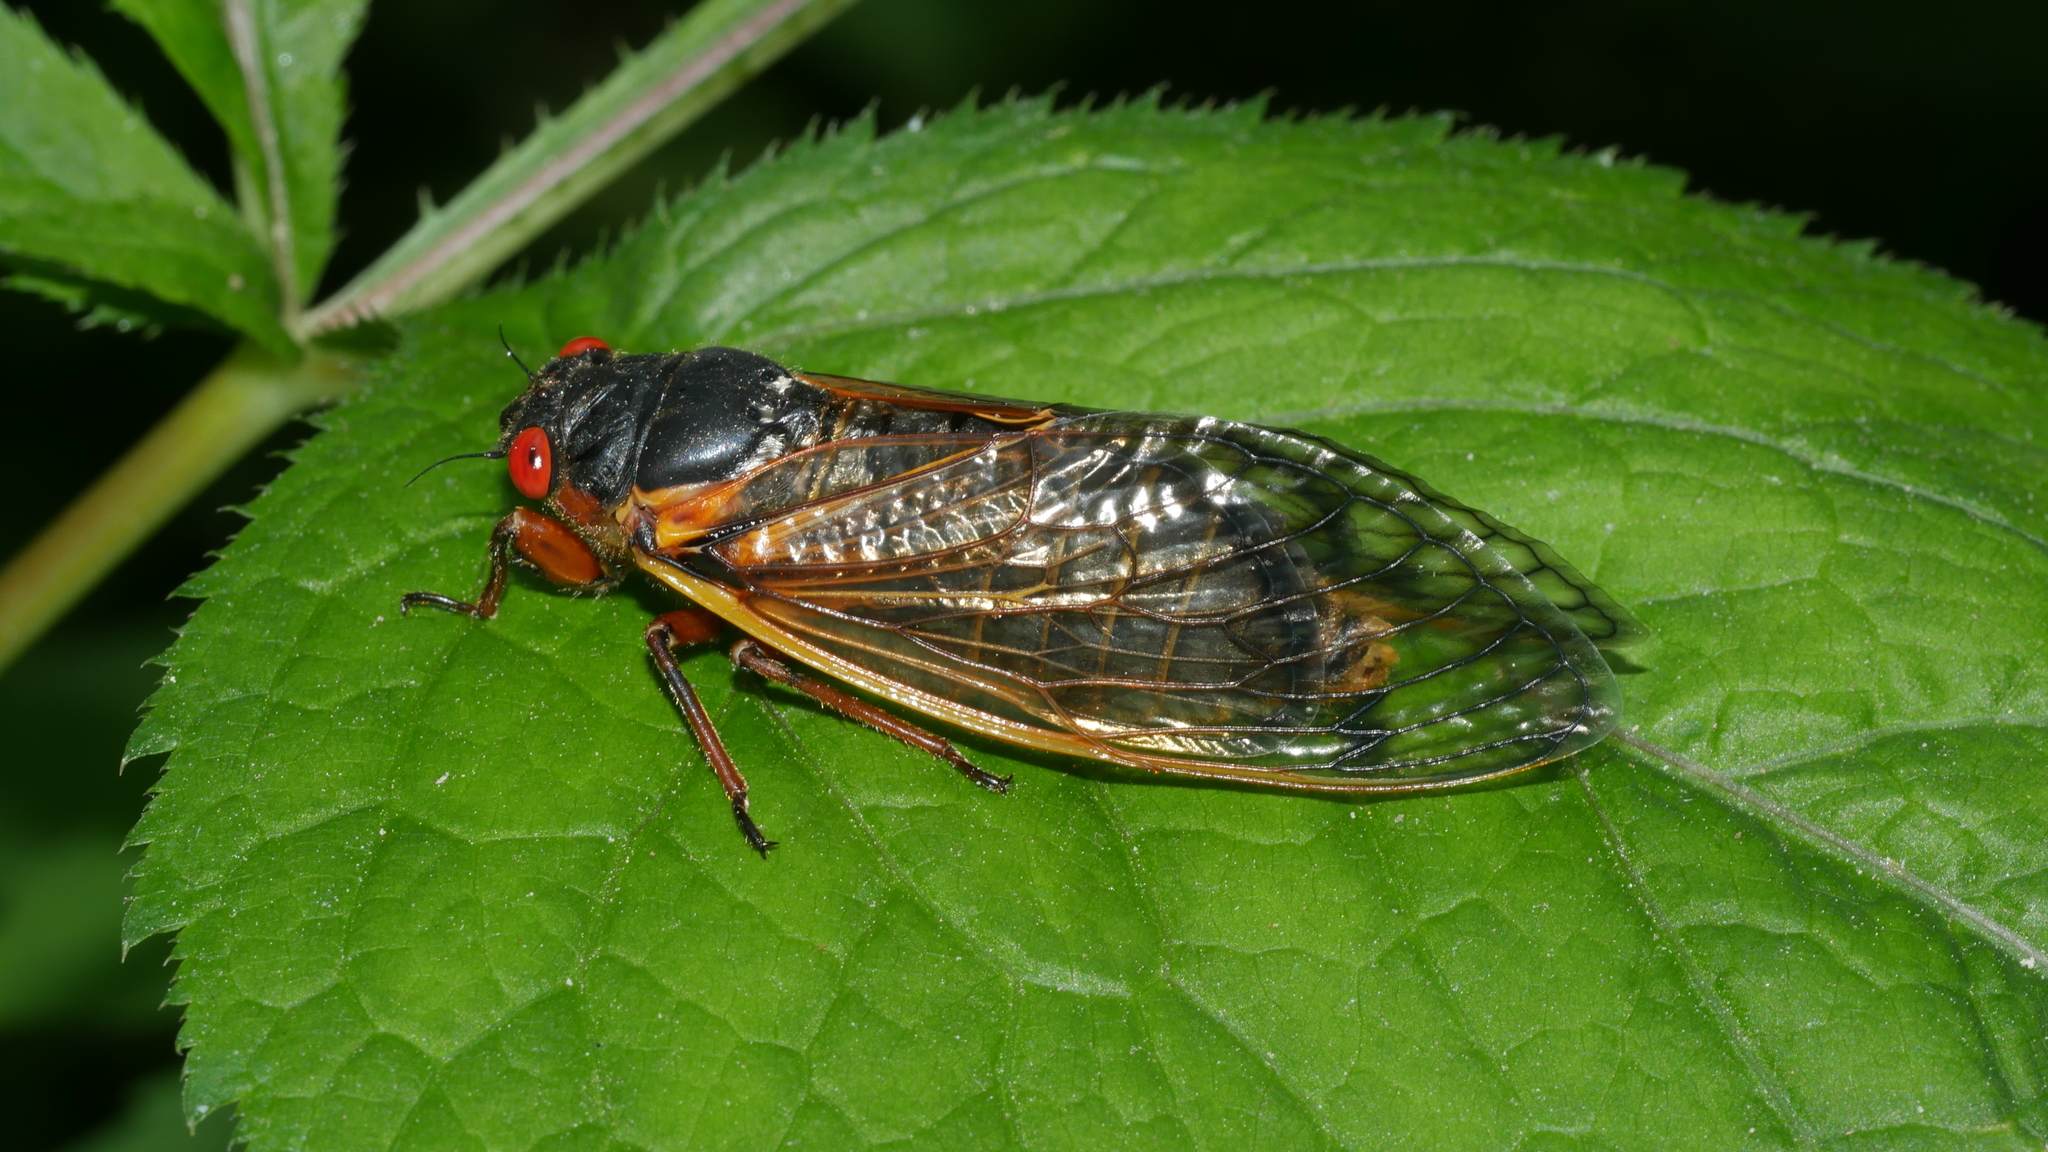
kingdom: Animalia
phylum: Arthropoda
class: Insecta
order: Hemiptera
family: Cicadidae
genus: Magicicada
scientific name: Magicicada septendecim
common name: Periodical cicada
